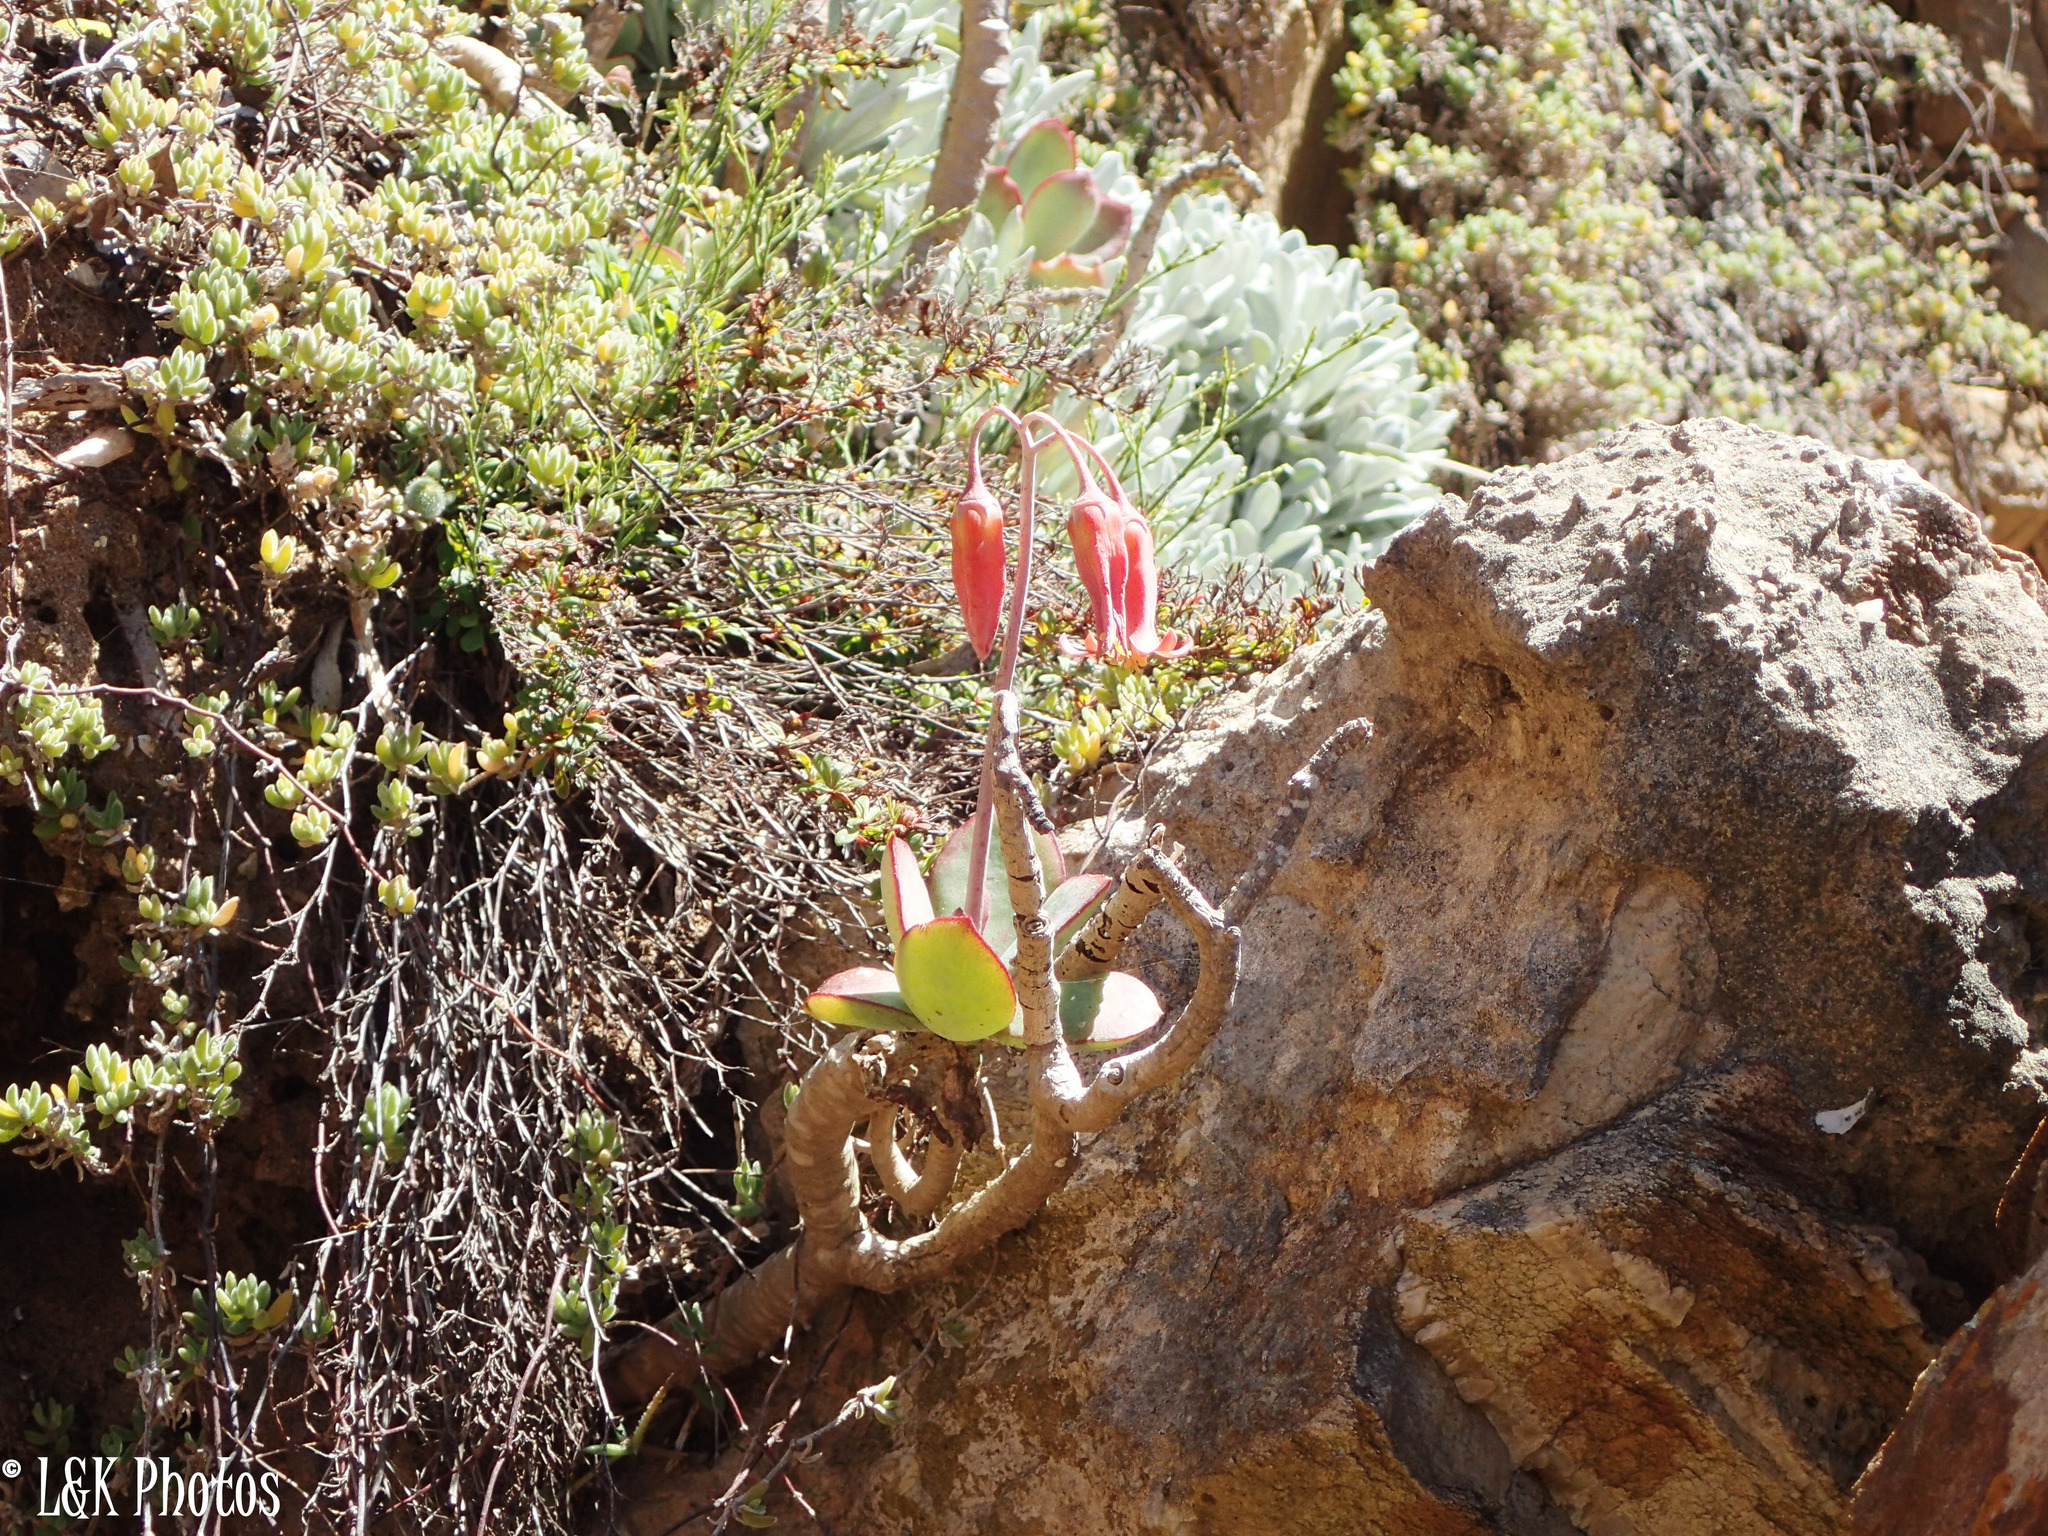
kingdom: Plantae
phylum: Tracheophyta
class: Magnoliopsida
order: Saxifragales
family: Crassulaceae
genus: Cotyledon
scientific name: Cotyledon orbiculata
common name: Pig's ear
